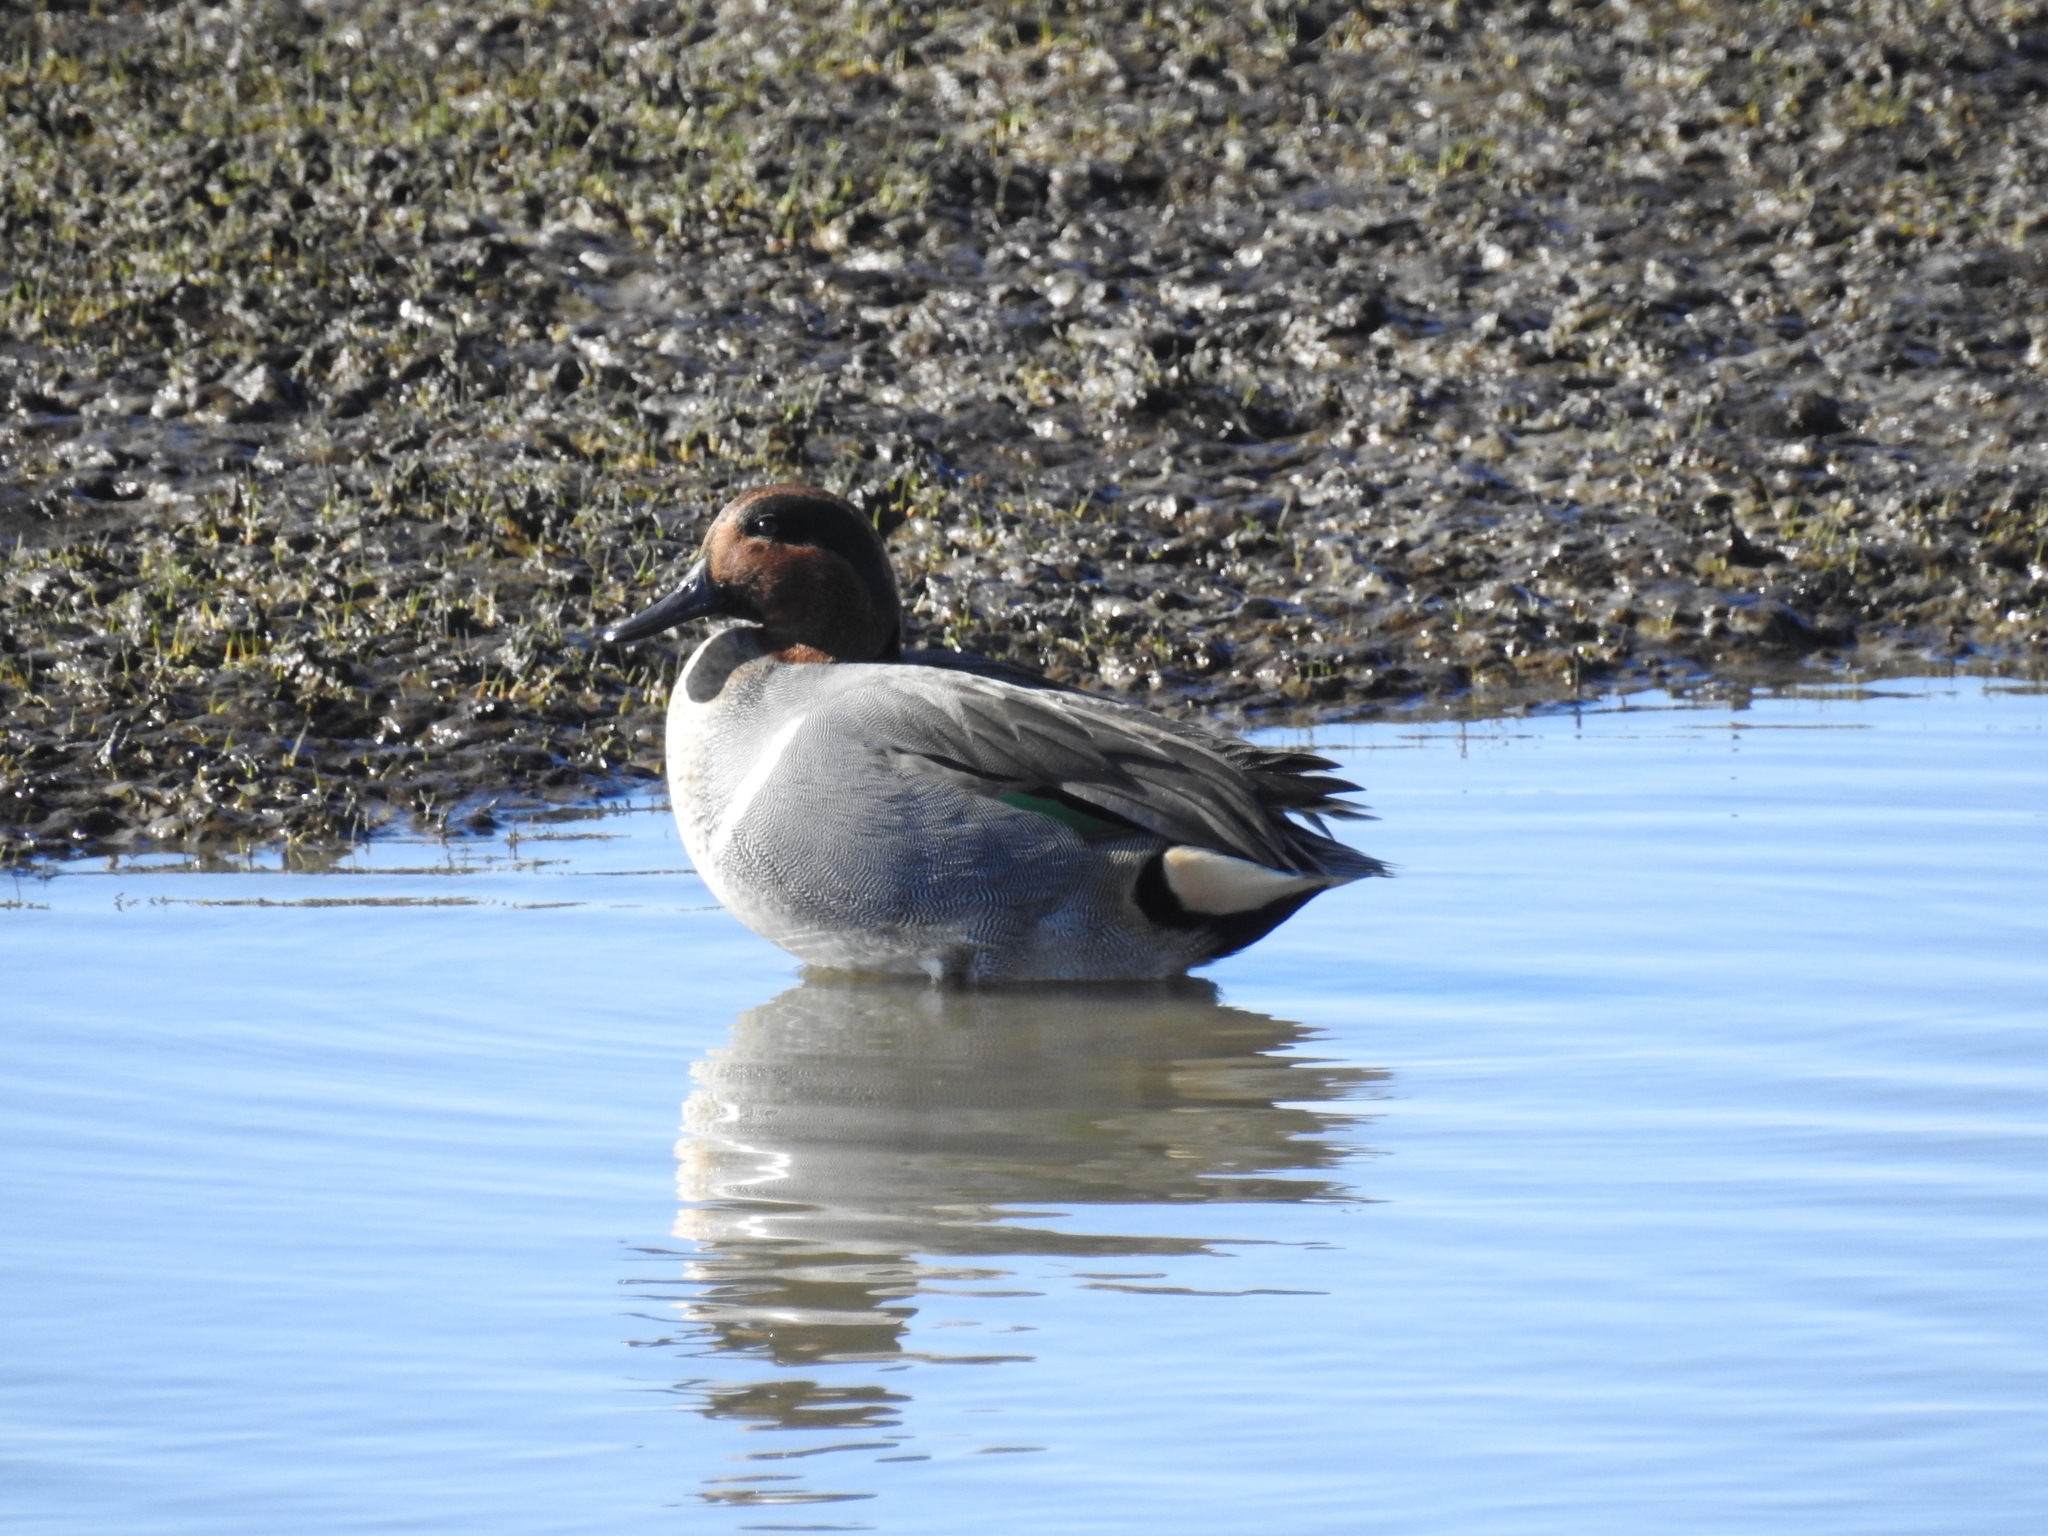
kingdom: Animalia
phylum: Chordata
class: Aves
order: Anseriformes
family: Anatidae
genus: Anas
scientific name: Anas crecca
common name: Eurasian teal
